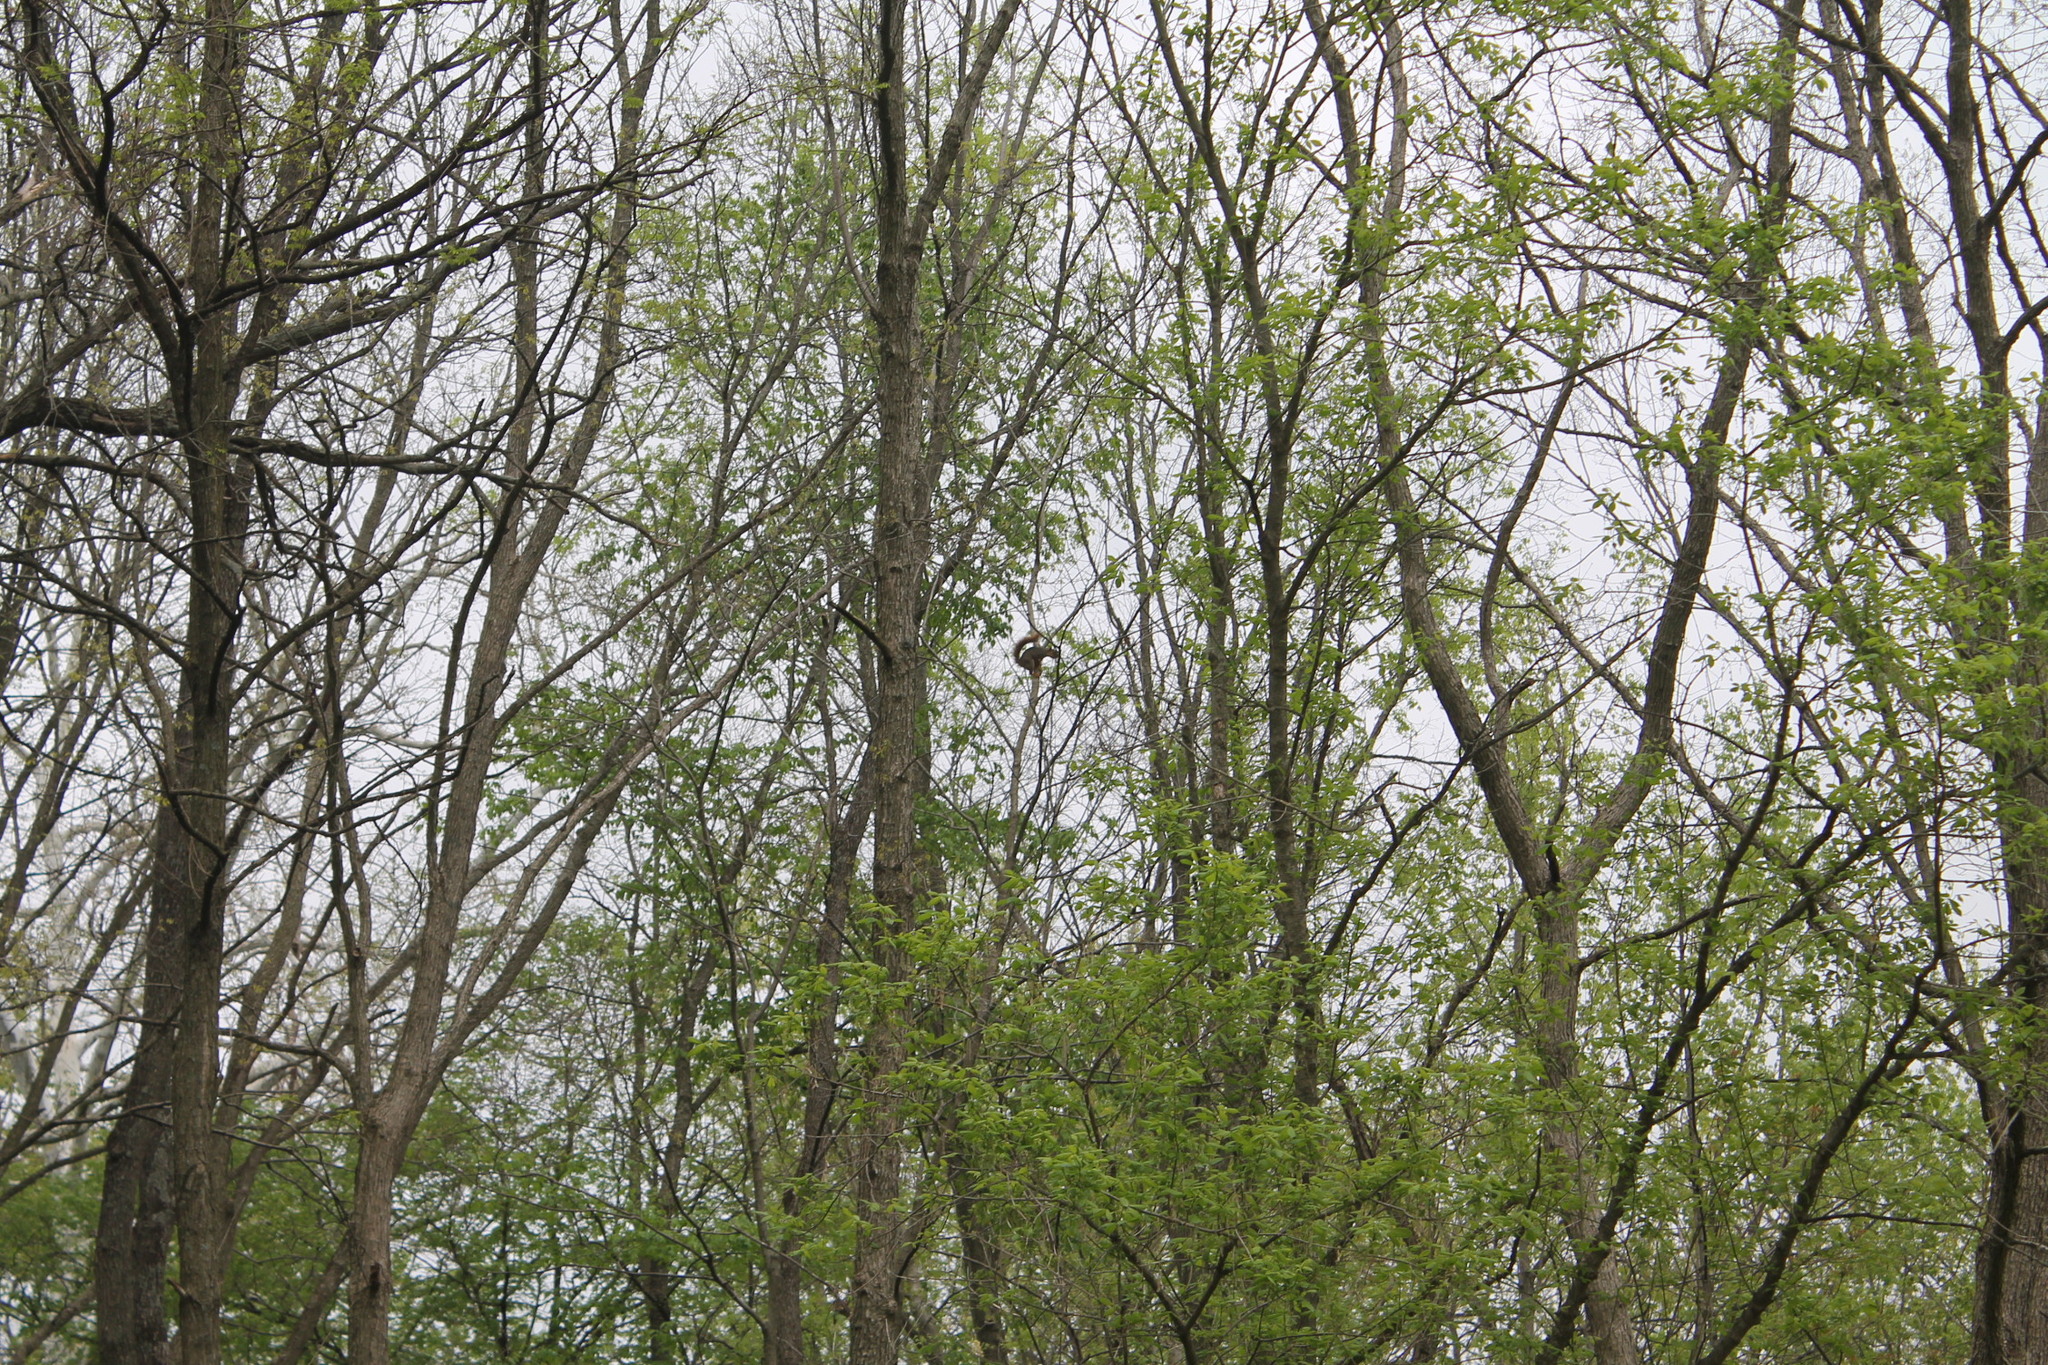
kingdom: Animalia
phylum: Chordata
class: Mammalia
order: Rodentia
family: Sciuridae
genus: Sciurus
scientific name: Sciurus niger
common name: Fox squirrel
